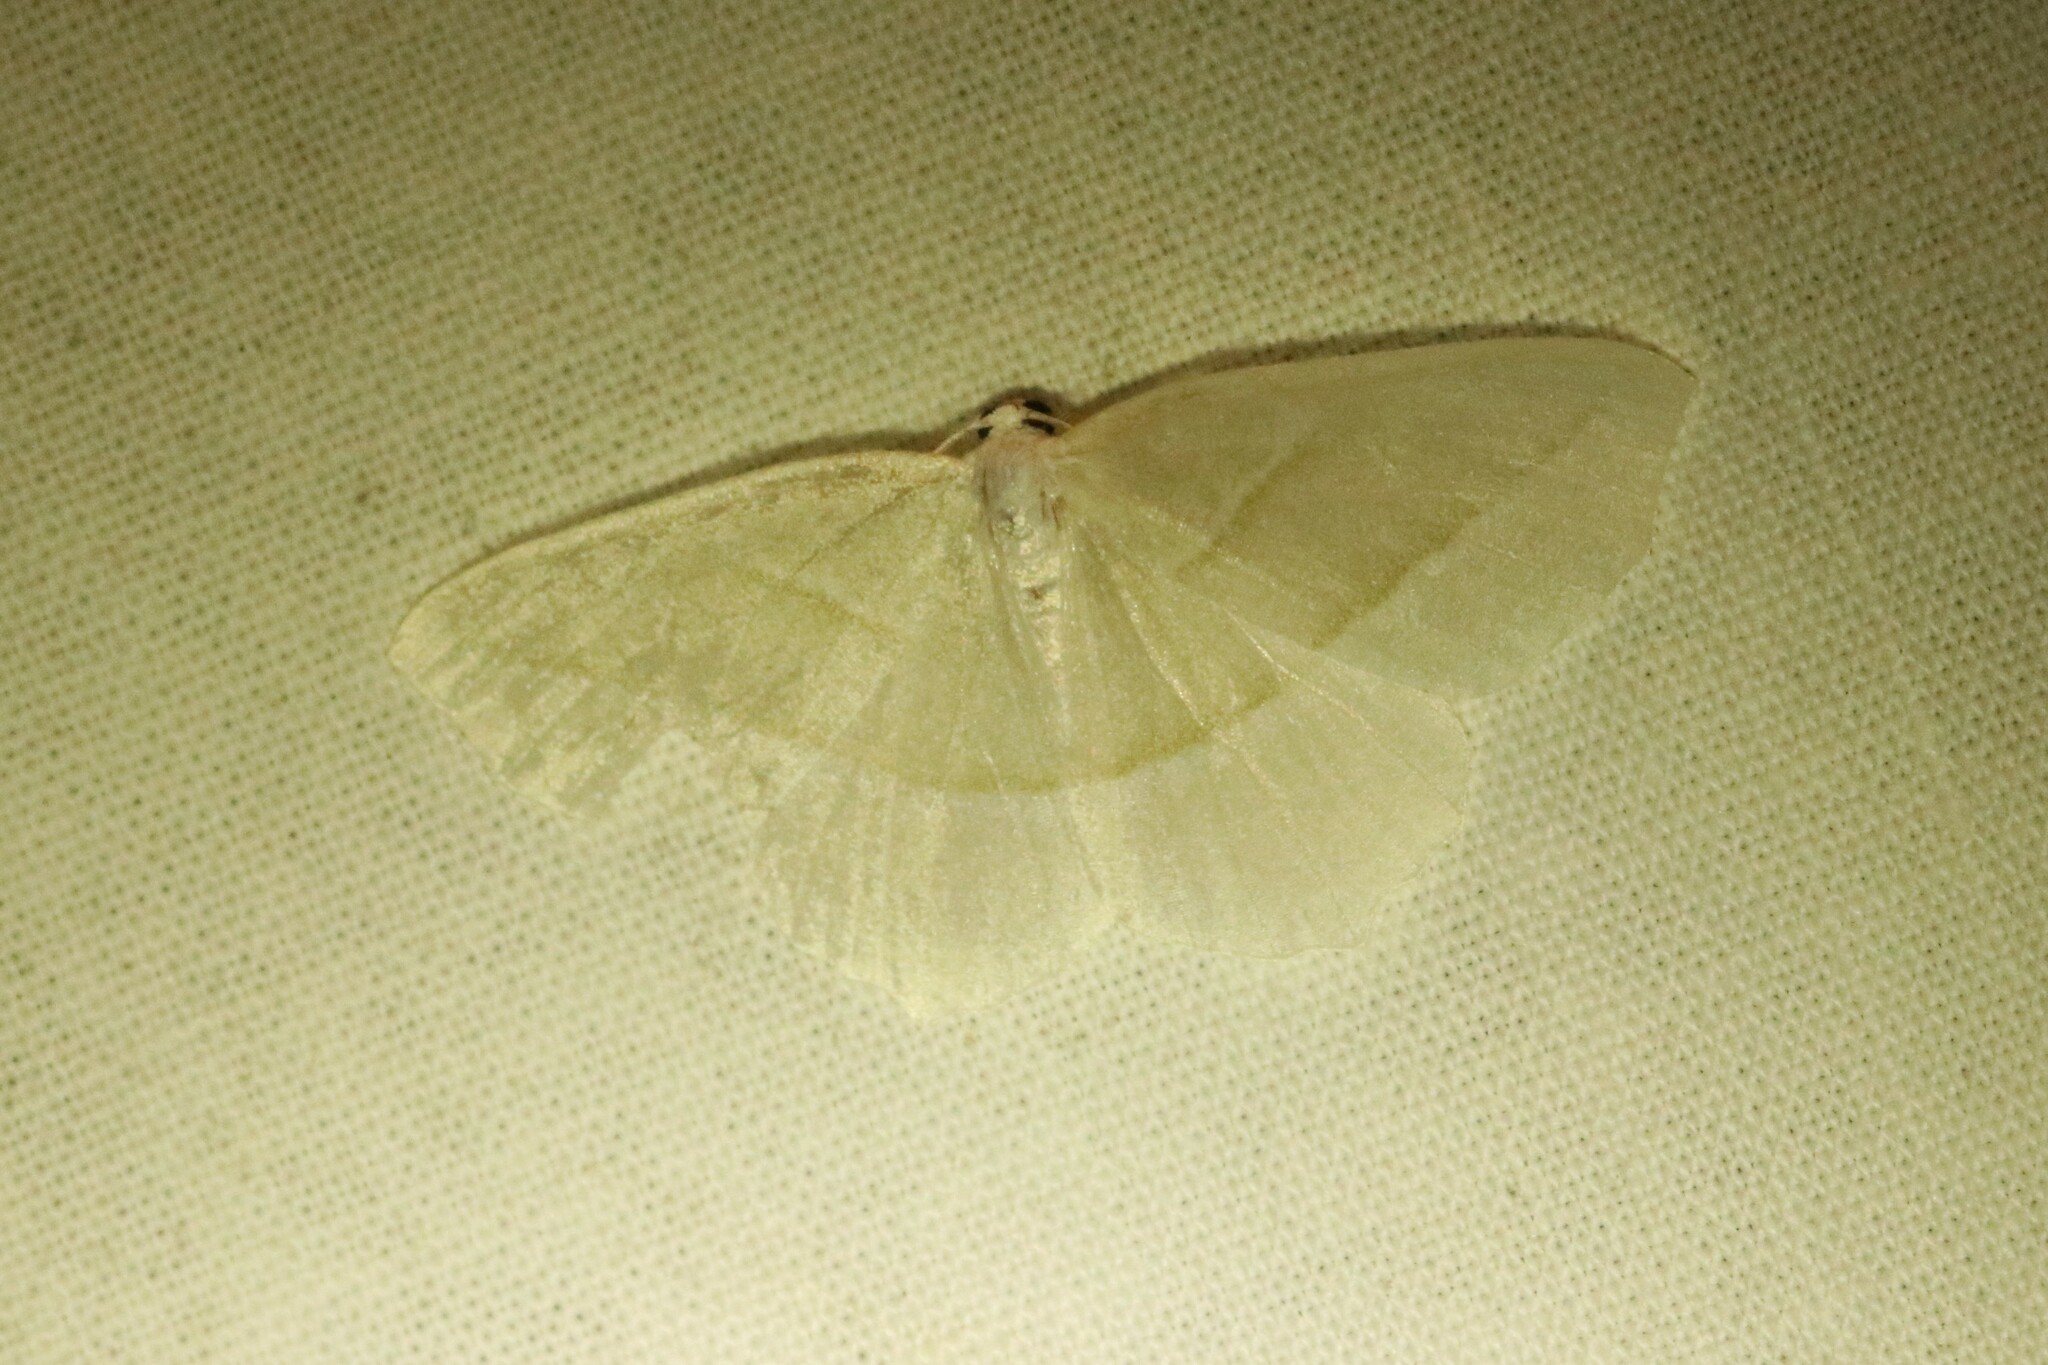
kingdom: Animalia
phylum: Arthropoda
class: Insecta
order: Lepidoptera
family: Geometridae
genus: Campaea
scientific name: Campaea perlata
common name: Fringed looper
